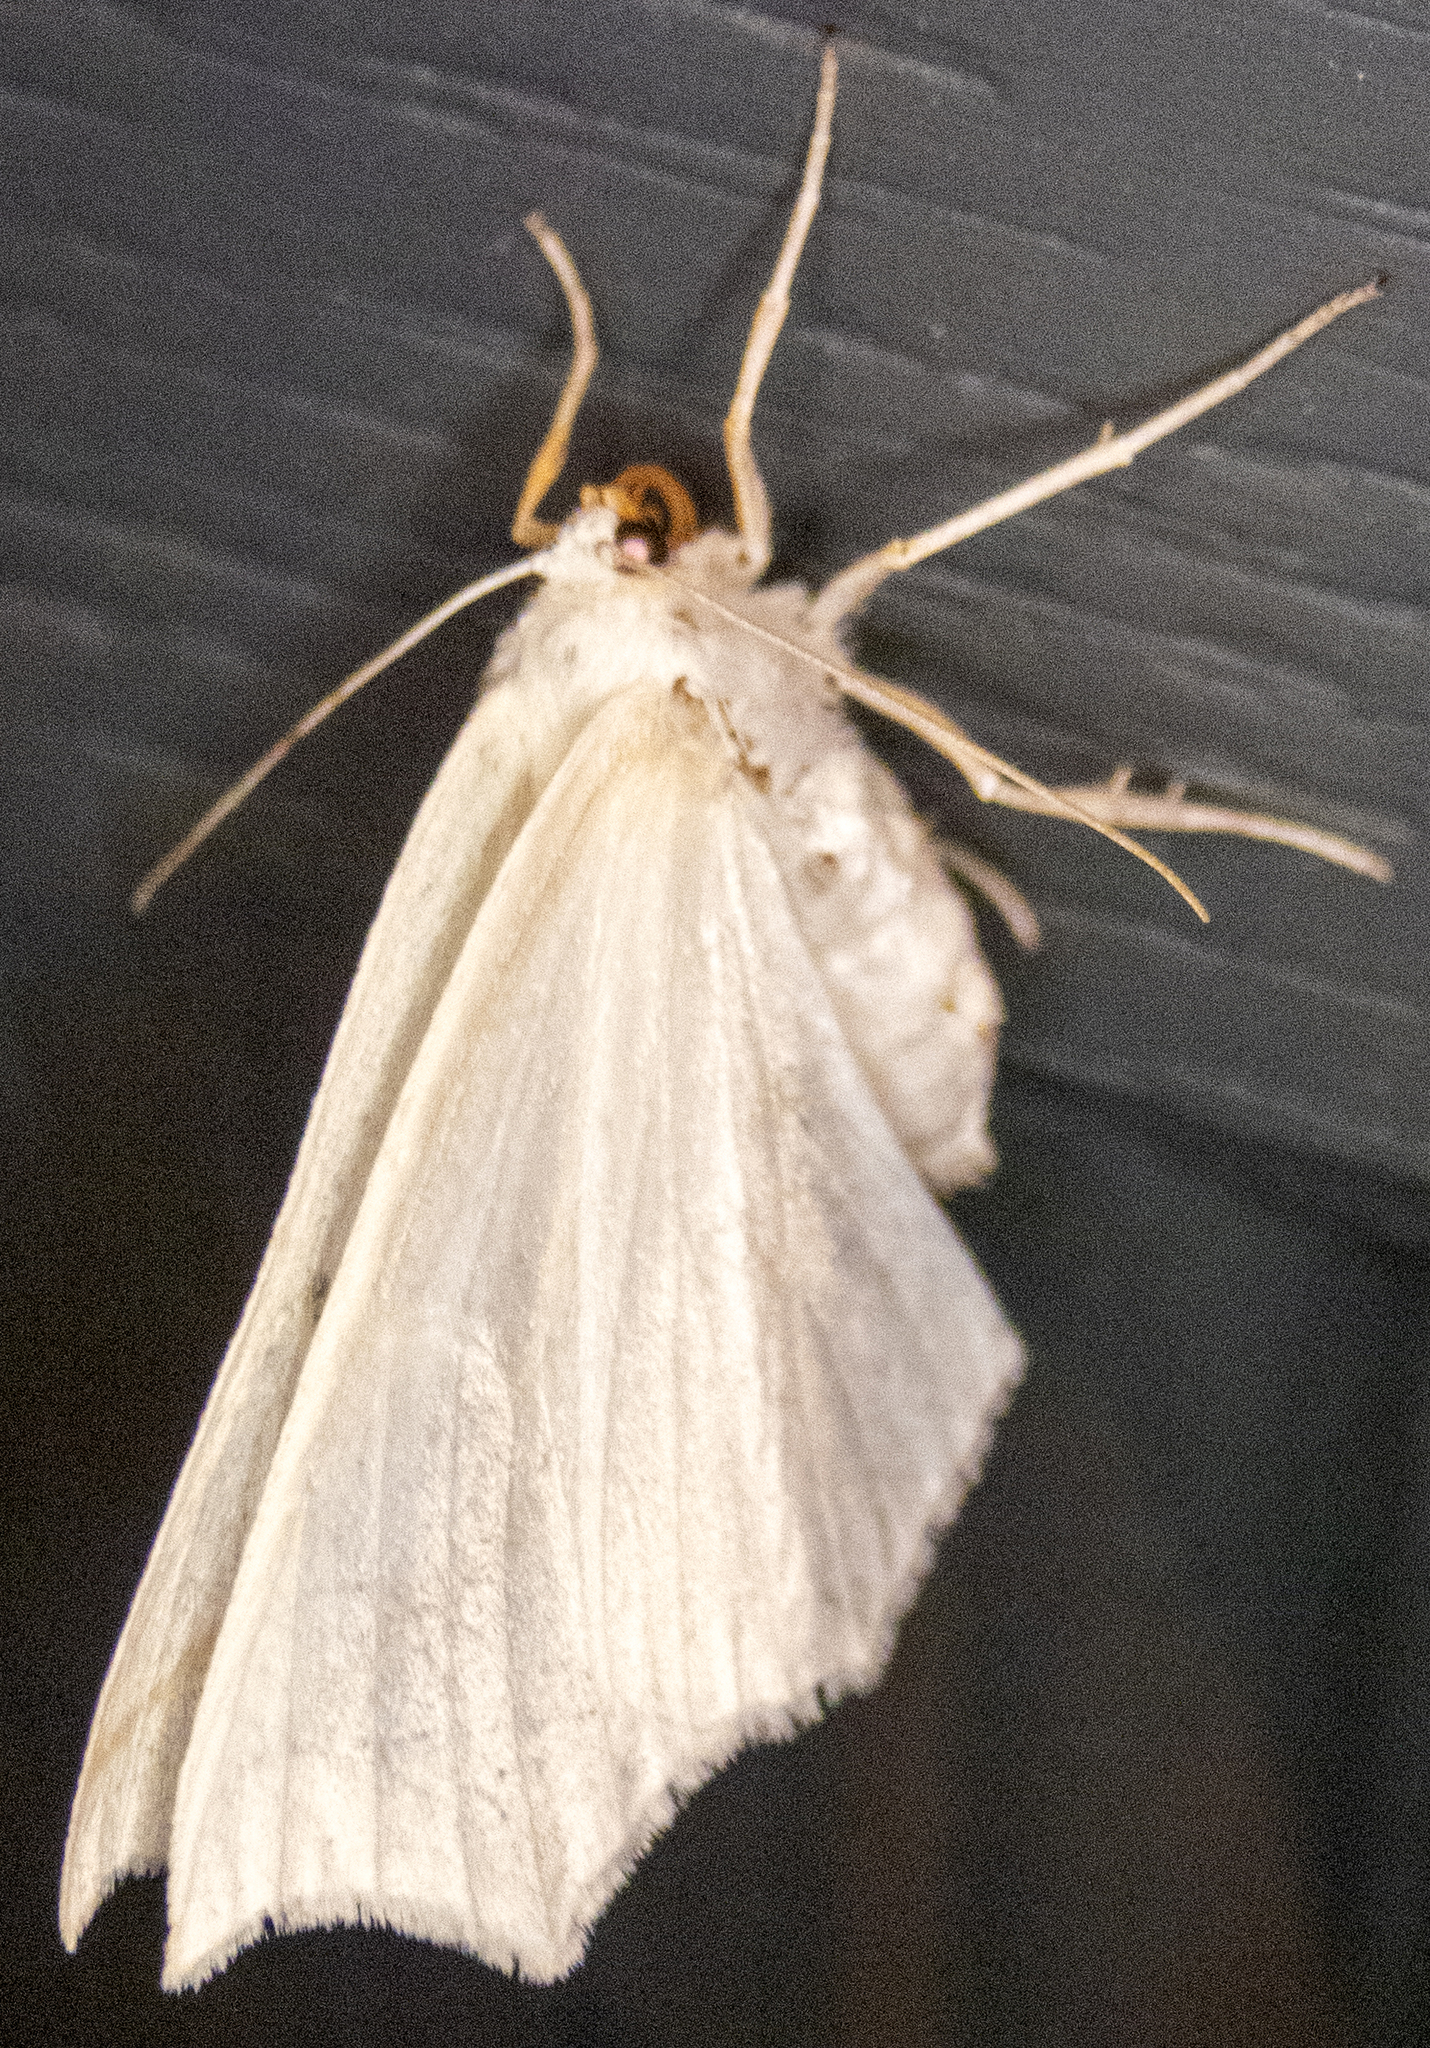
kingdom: Animalia
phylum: Arthropoda
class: Insecta
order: Lepidoptera
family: Geometridae
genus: Tetracis
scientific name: Tetracis cachexiata
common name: White slant-line
